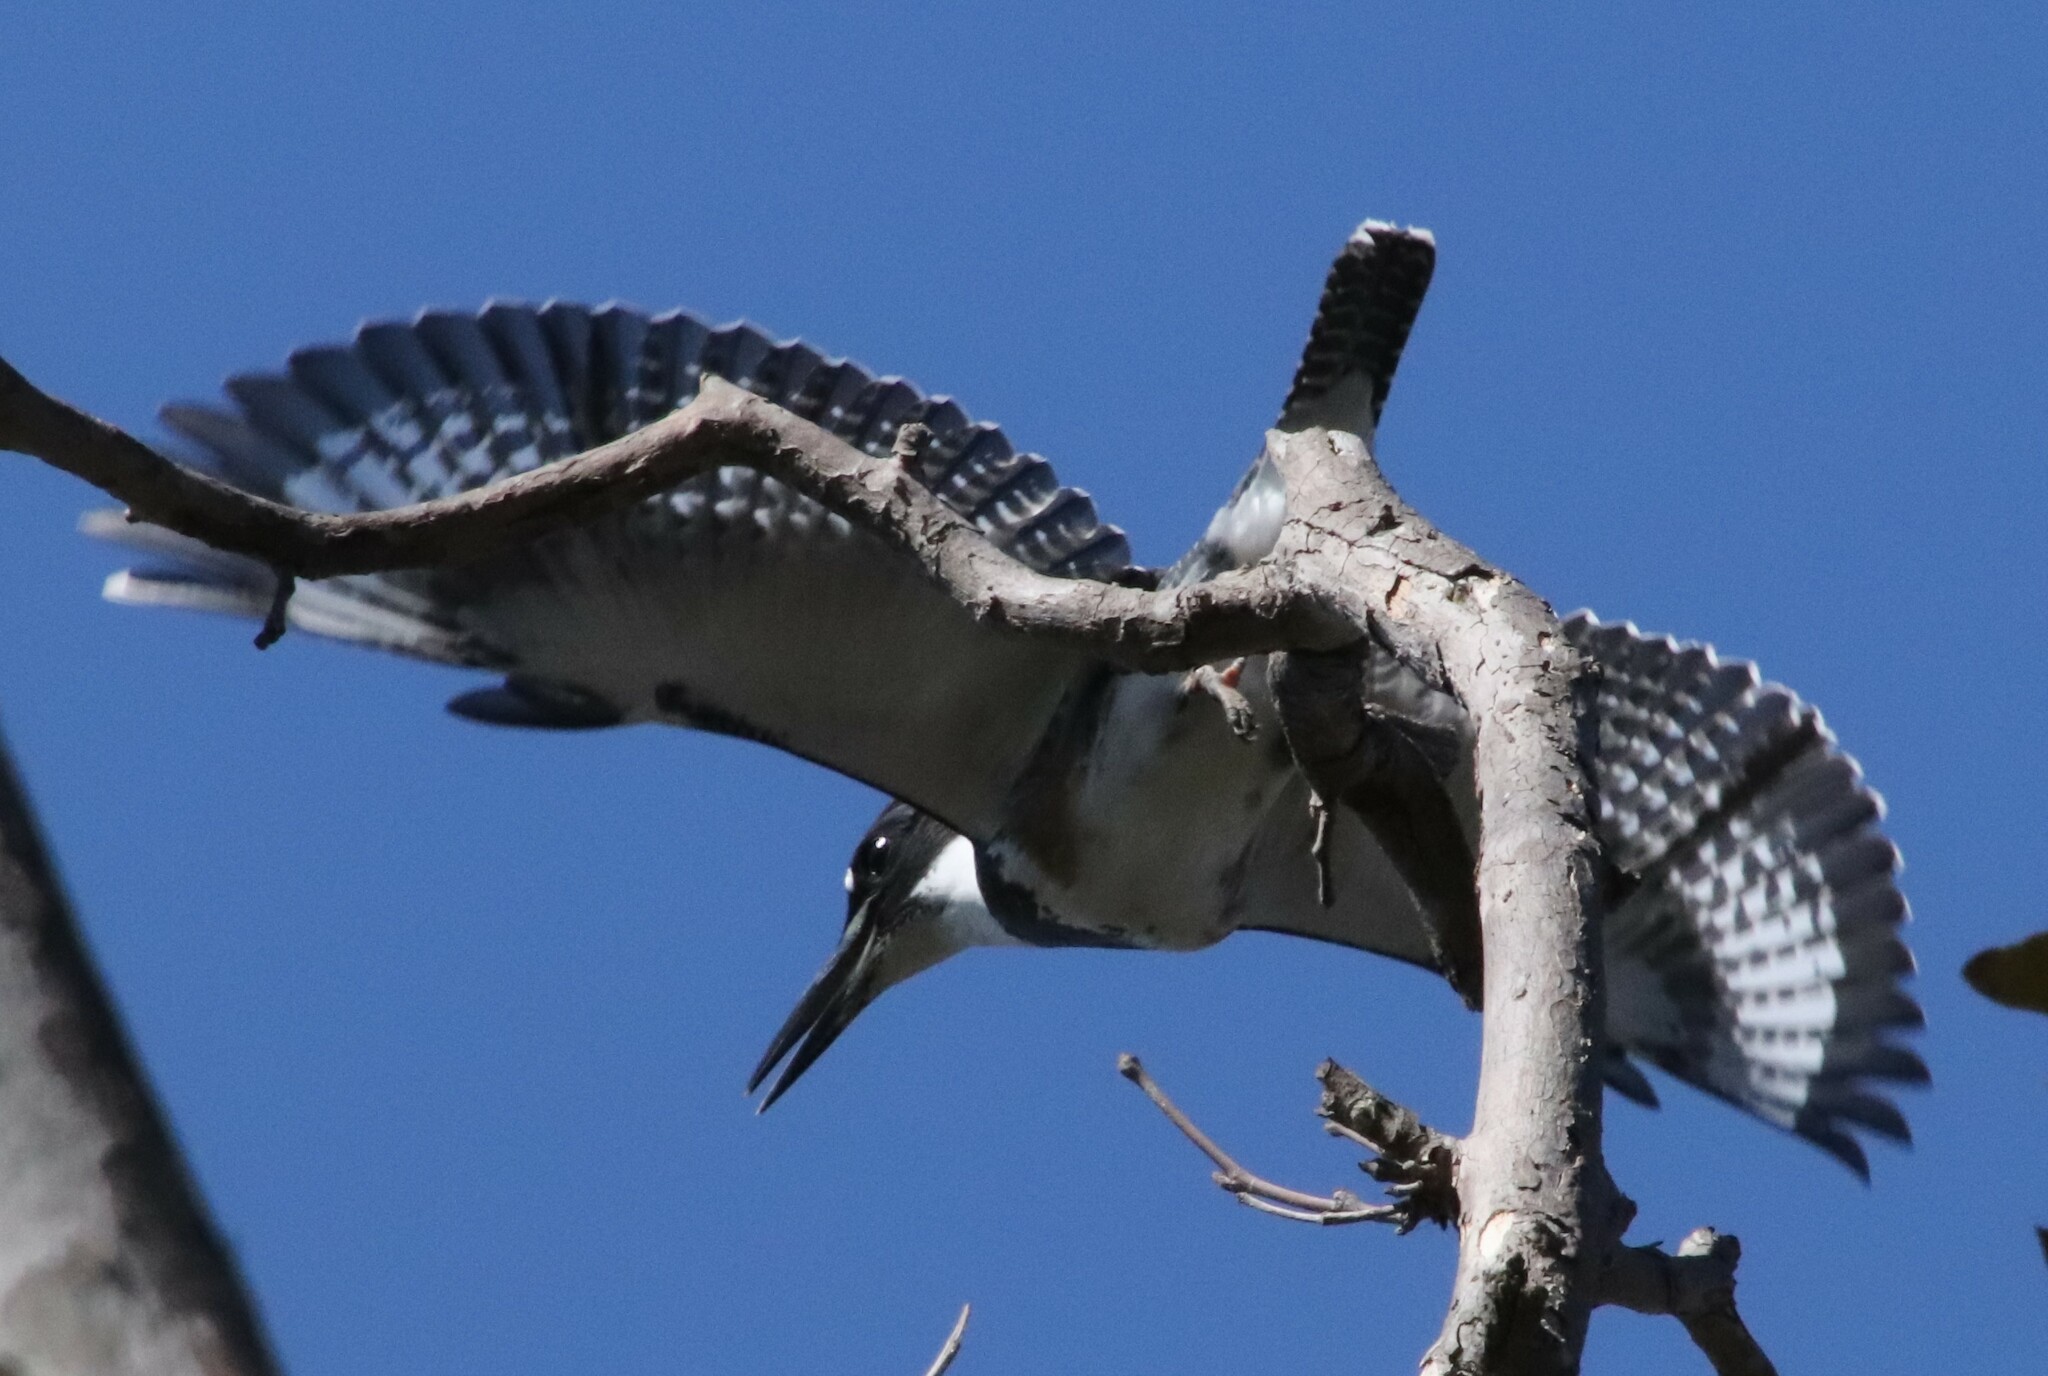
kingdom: Animalia
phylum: Chordata
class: Aves
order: Coraciiformes
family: Alcedinidae
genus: Megaceryle
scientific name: Megaceryle alcyon
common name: Belted kingfisher
